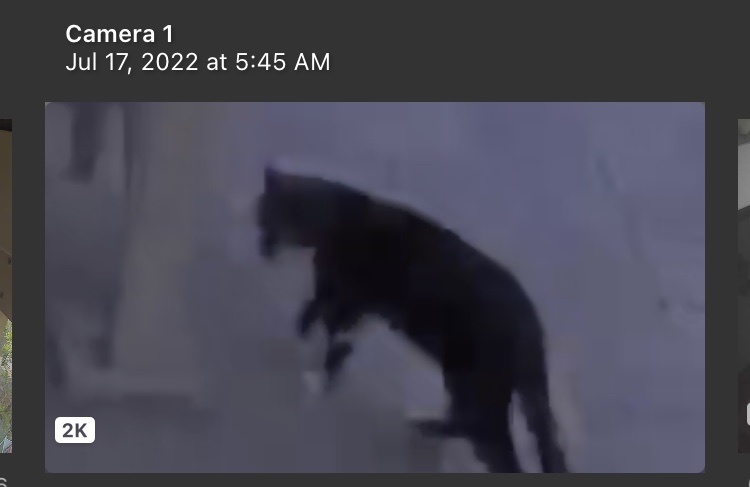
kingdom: Animalia
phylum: Chordata
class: Mammalia
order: Carnivora
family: Felidae
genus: Felis
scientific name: Felis catus
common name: Domestic cat
